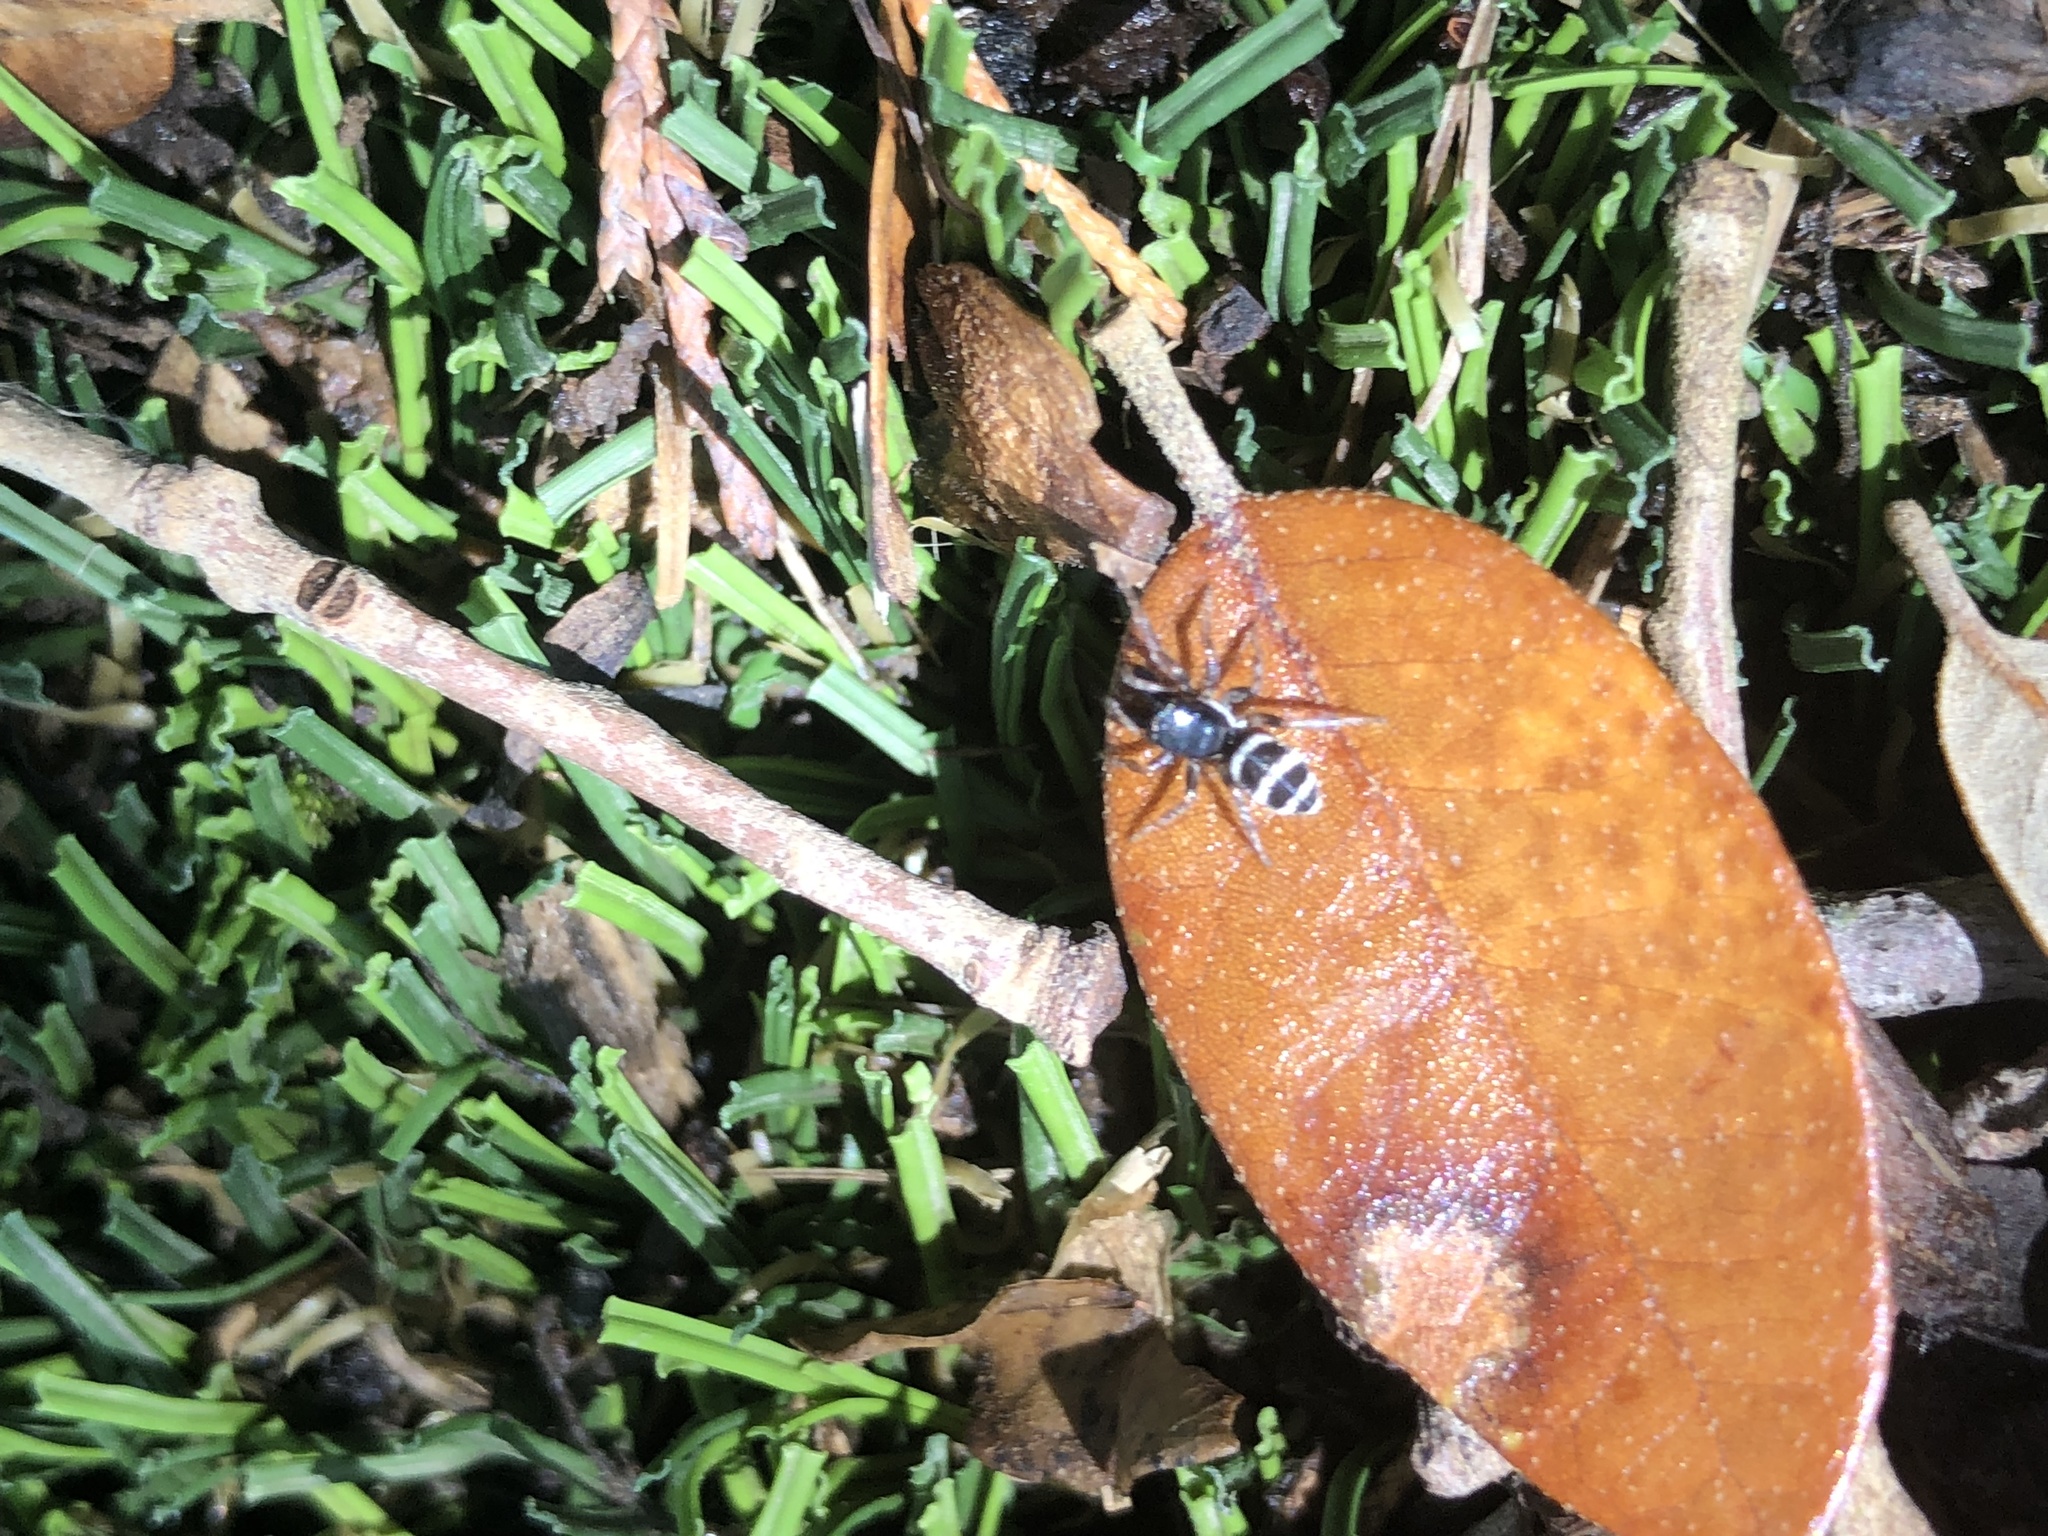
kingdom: Animalia
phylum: Arthropoda
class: Arachnida
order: Araneae
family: Salticidae
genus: Salticus
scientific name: Salticus austinensis
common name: Jumping spiders
